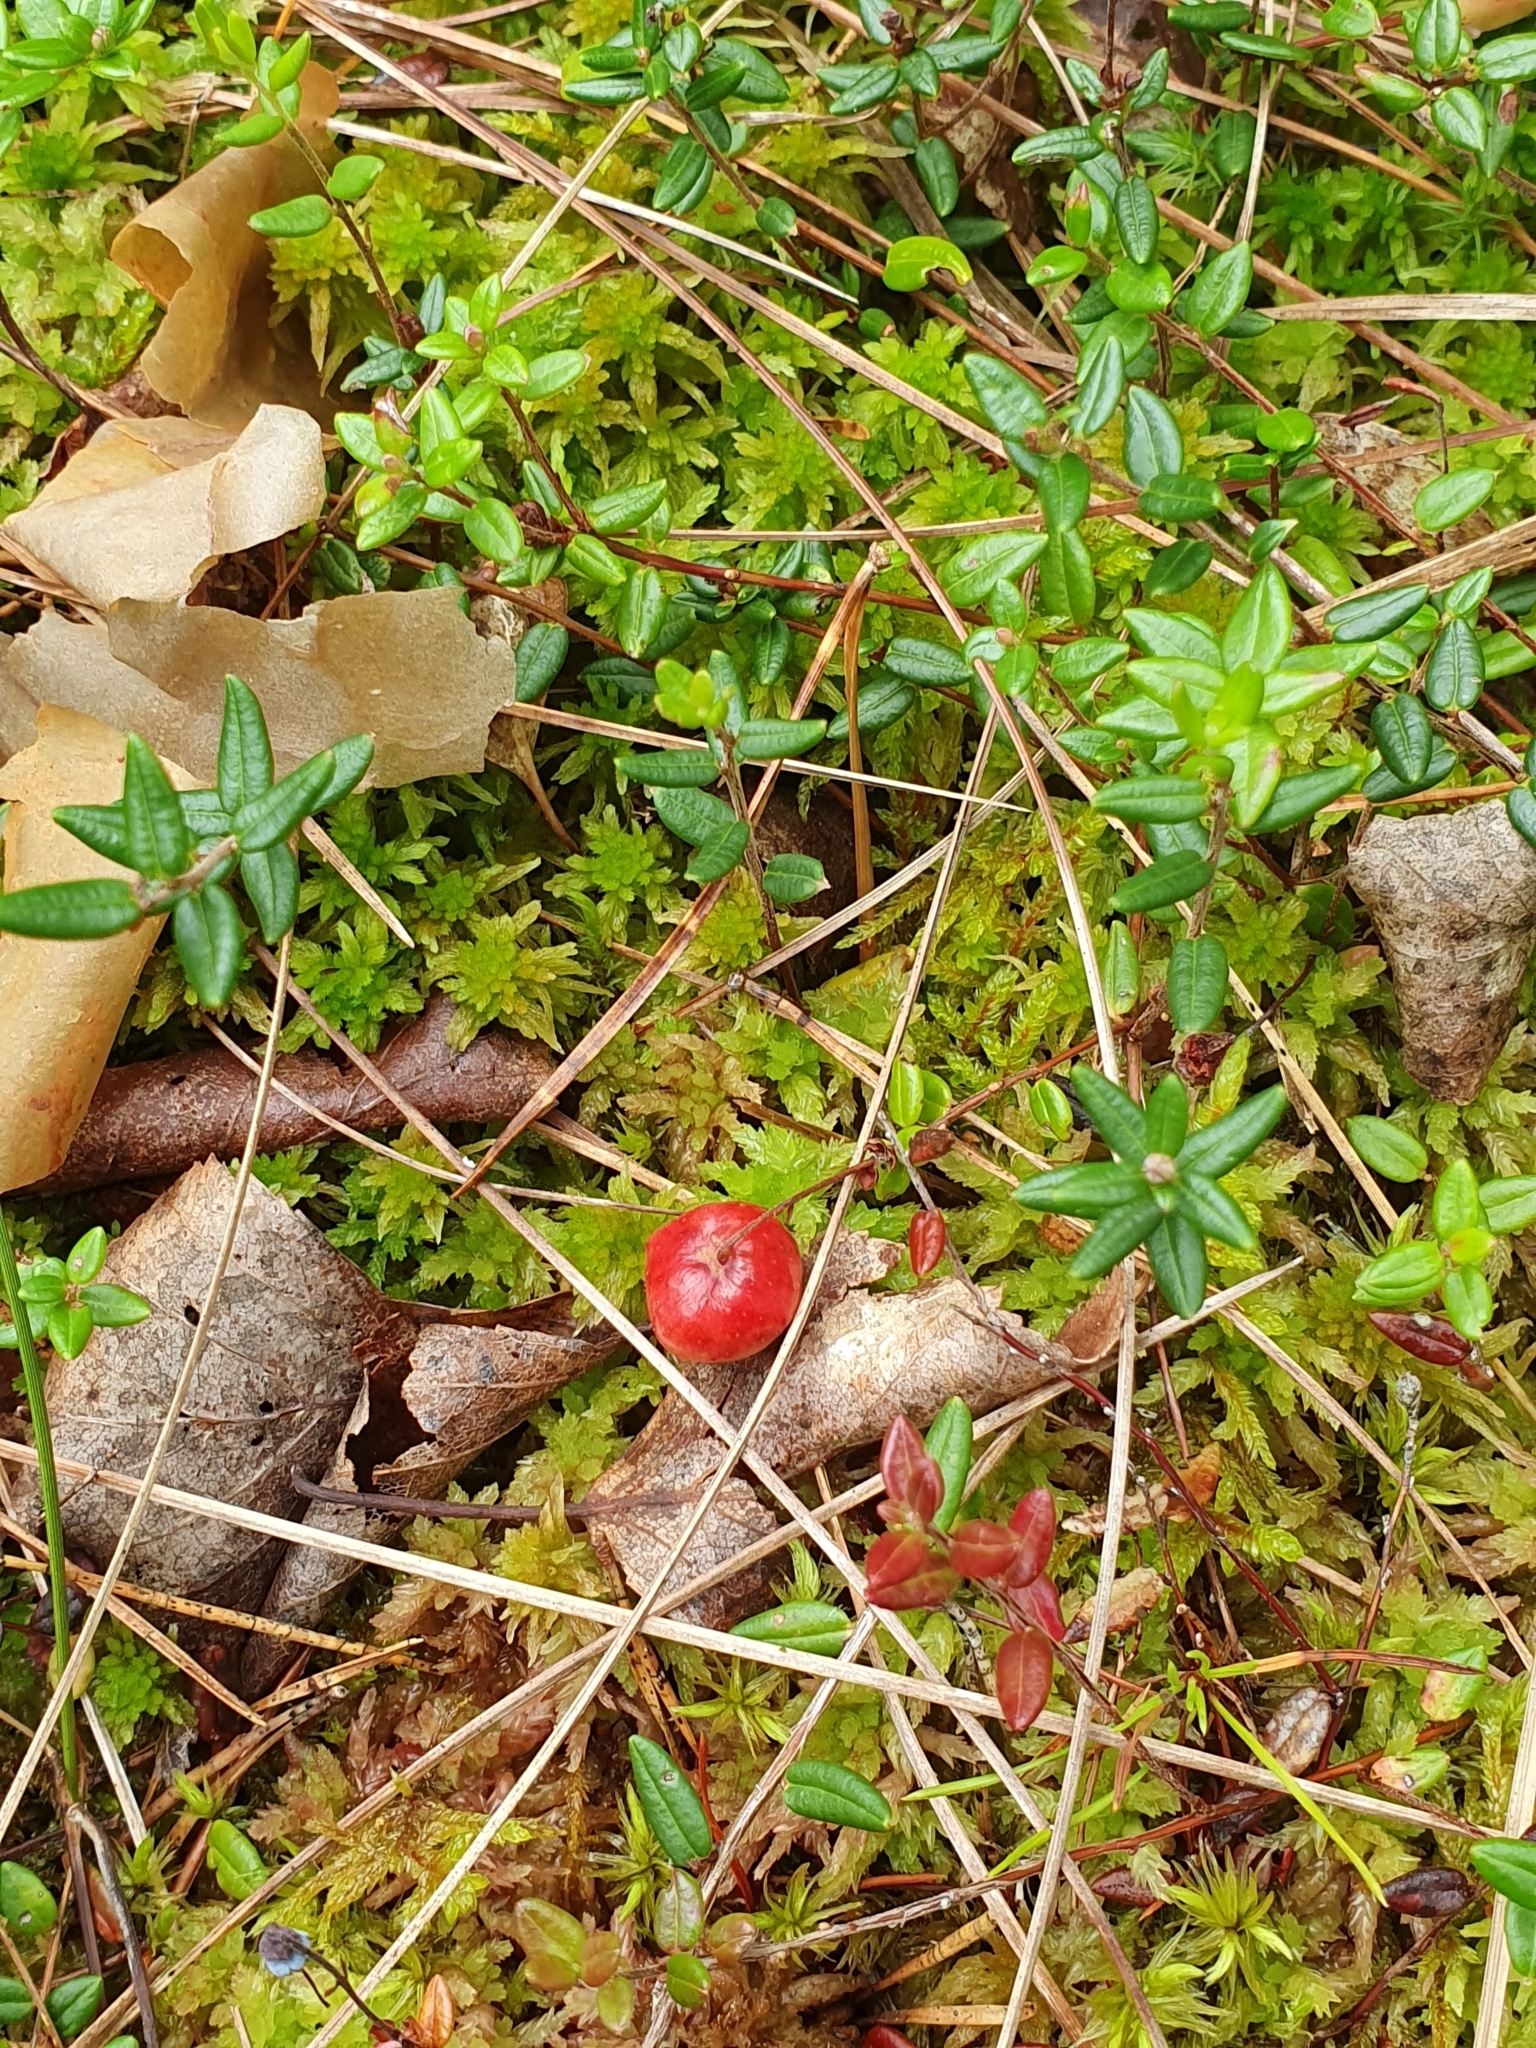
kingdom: Plantae
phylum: Tracheophyta
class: Magnoliopsida
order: Ericales
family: Ericaceae
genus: Vaccinium
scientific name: Vaccinium oxycoccos
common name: Cranberry
